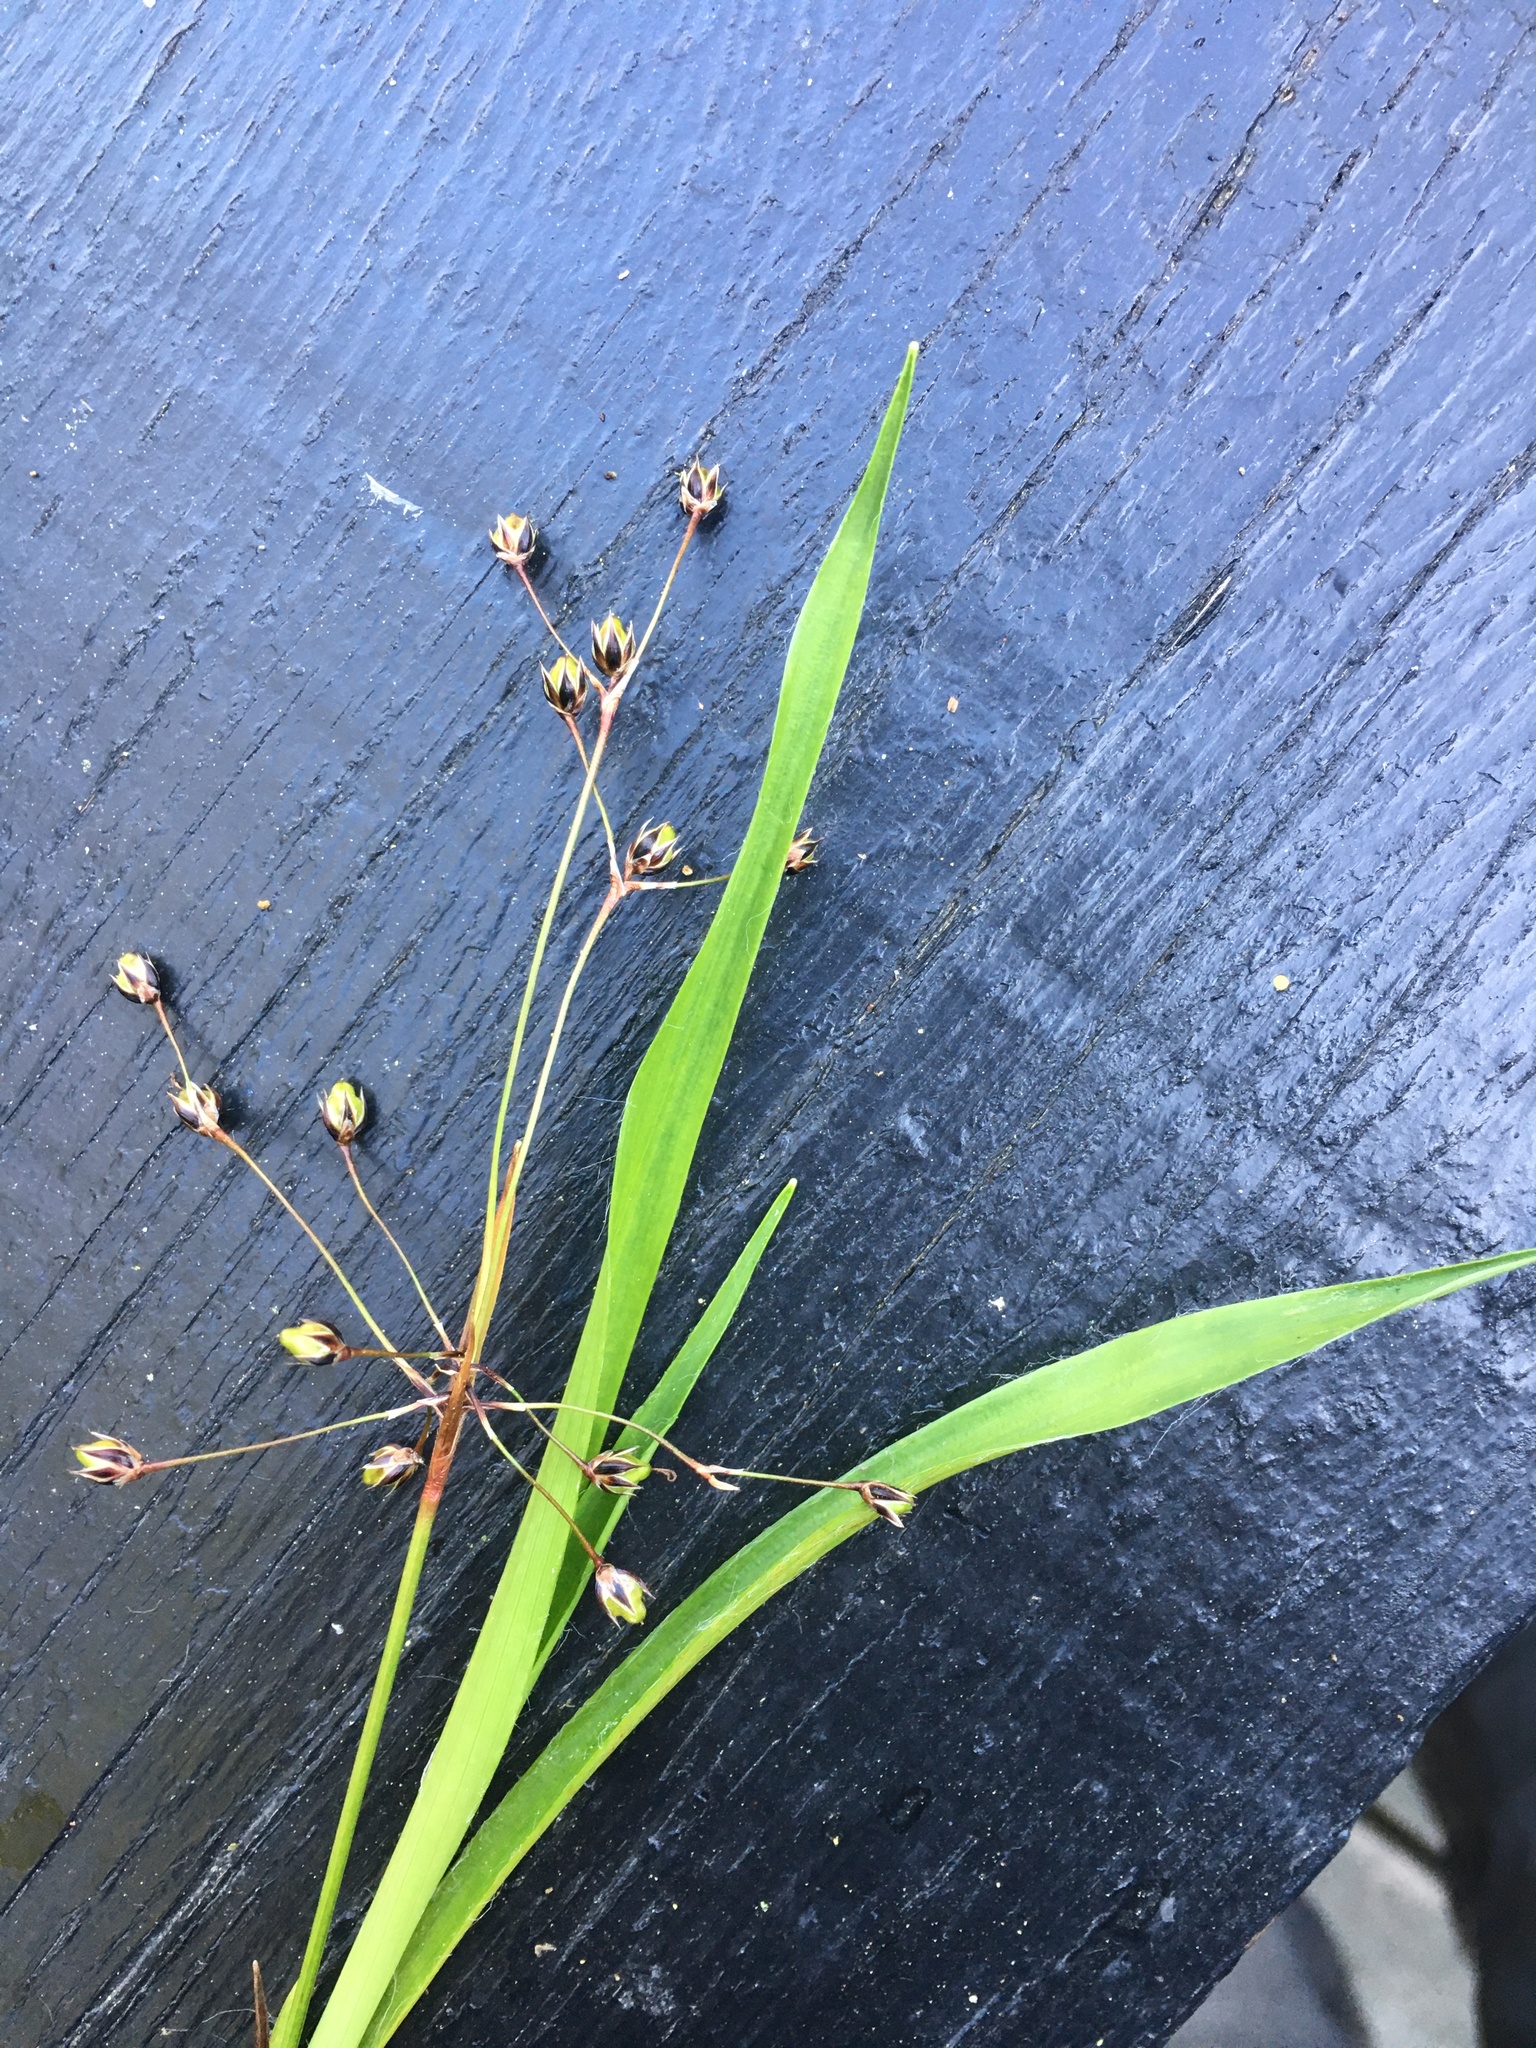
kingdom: Plantae
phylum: Tracheophyta
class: Liliopsida
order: Poales
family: Juncaceae
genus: Luzula
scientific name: Luzula pilosa
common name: Hairy wood-rush
